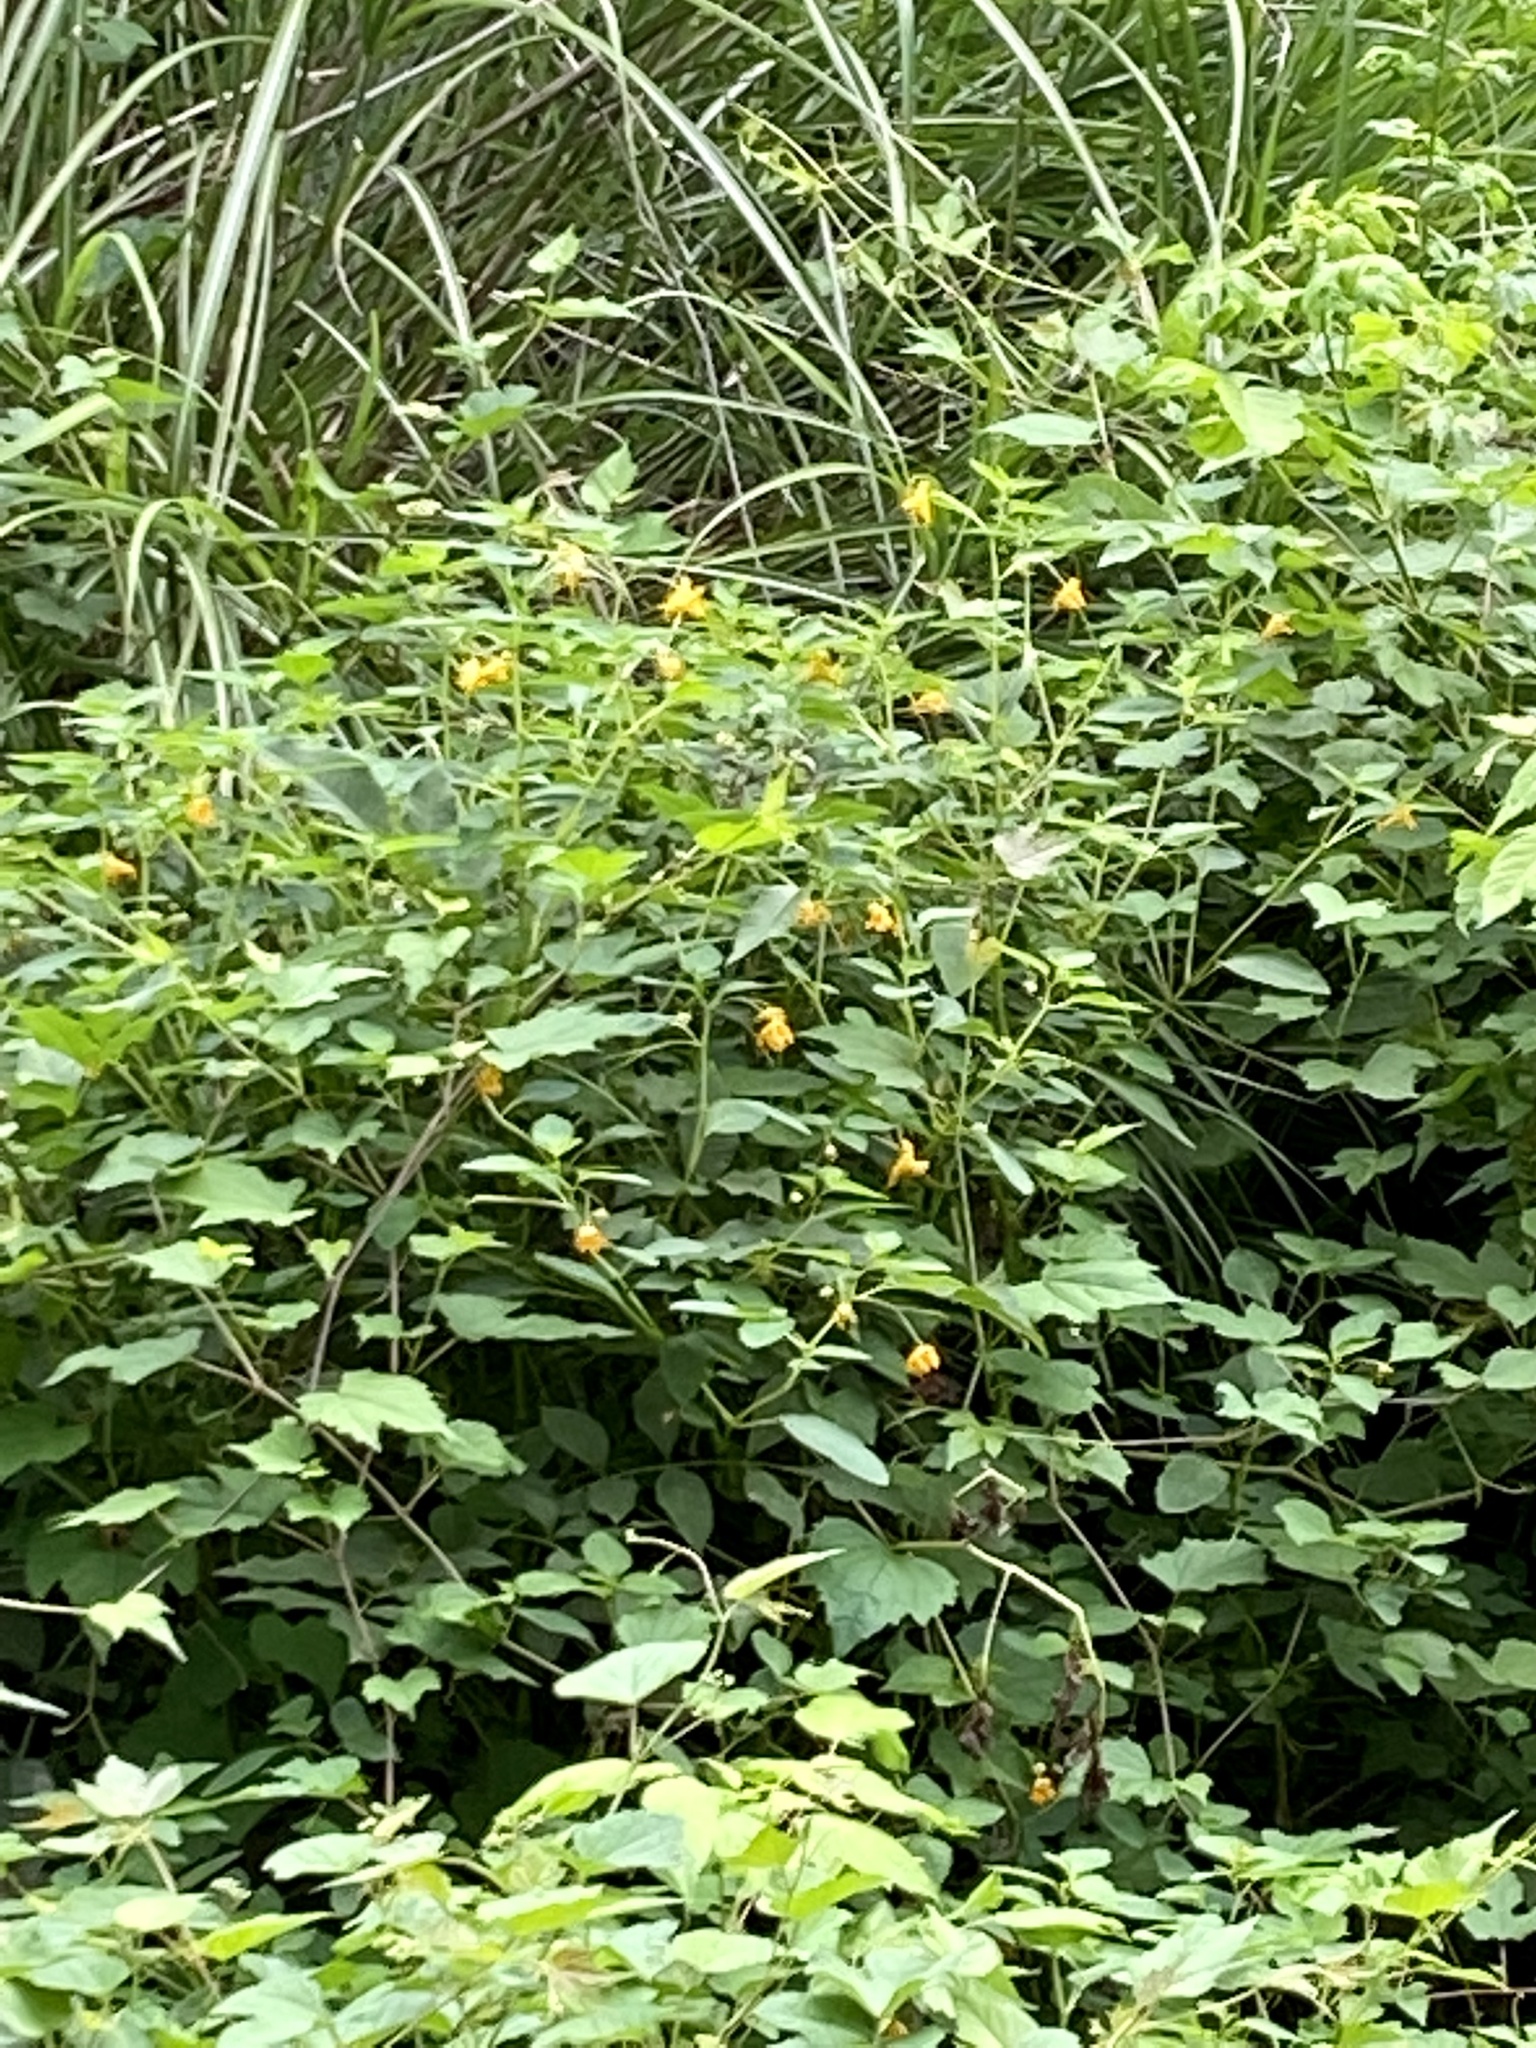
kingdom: Plantae
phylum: Tracheophyta
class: Magnoliopsida
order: Ericales
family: Balsaminaceae
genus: Impatiens
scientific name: Impatiens capensis
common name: Orange balsam
